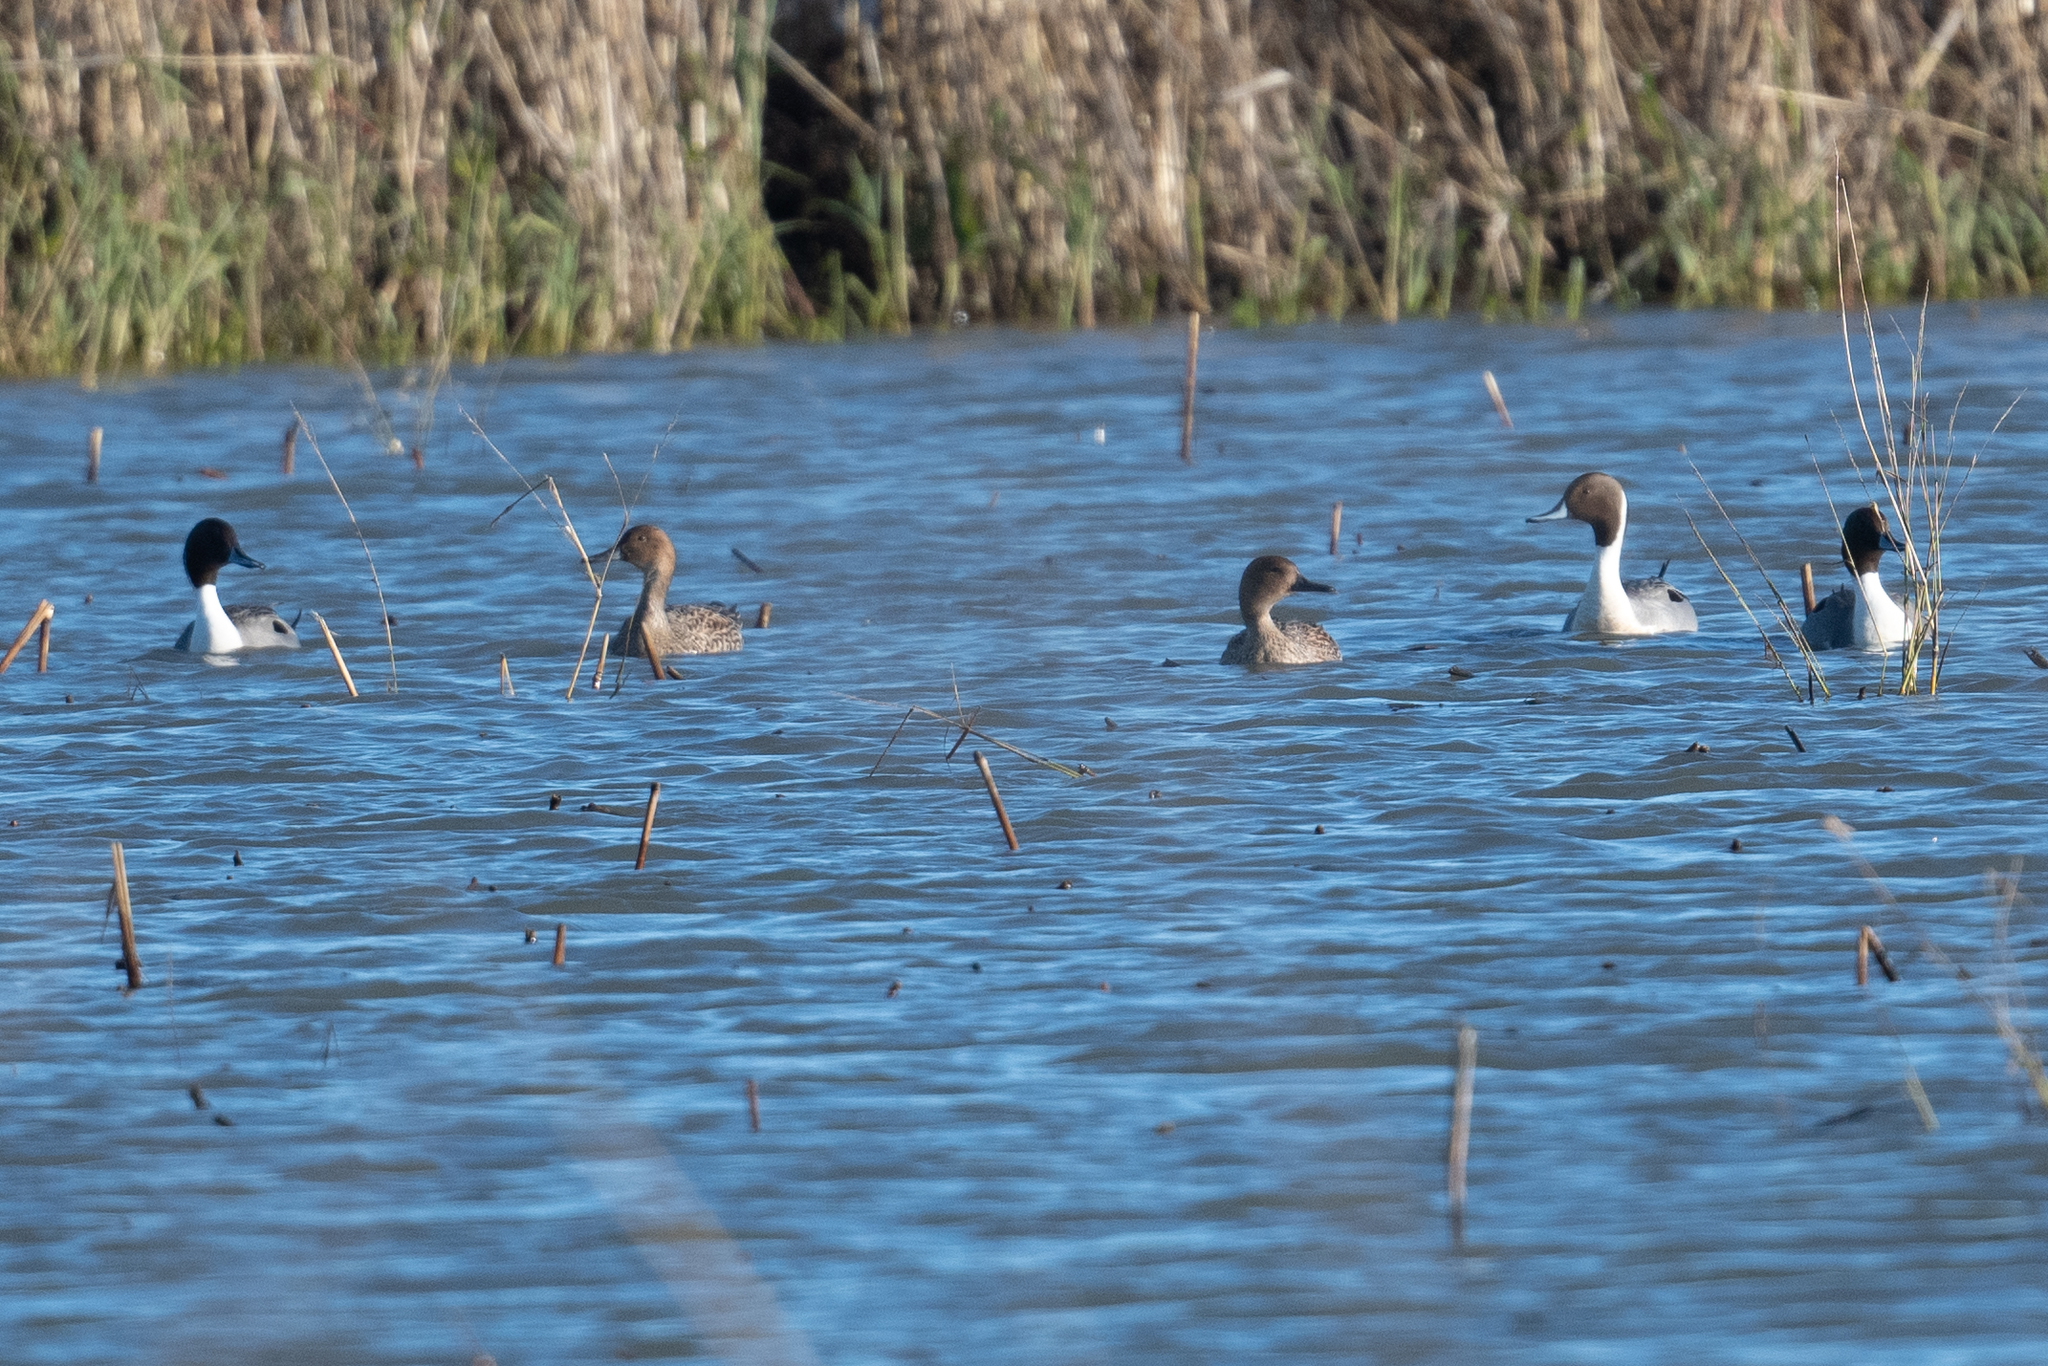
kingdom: Animalia
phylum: Chordata
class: Aves
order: Anseriformes
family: Anatidae
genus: Anas
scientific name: Anas acuta
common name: Northern pintail
